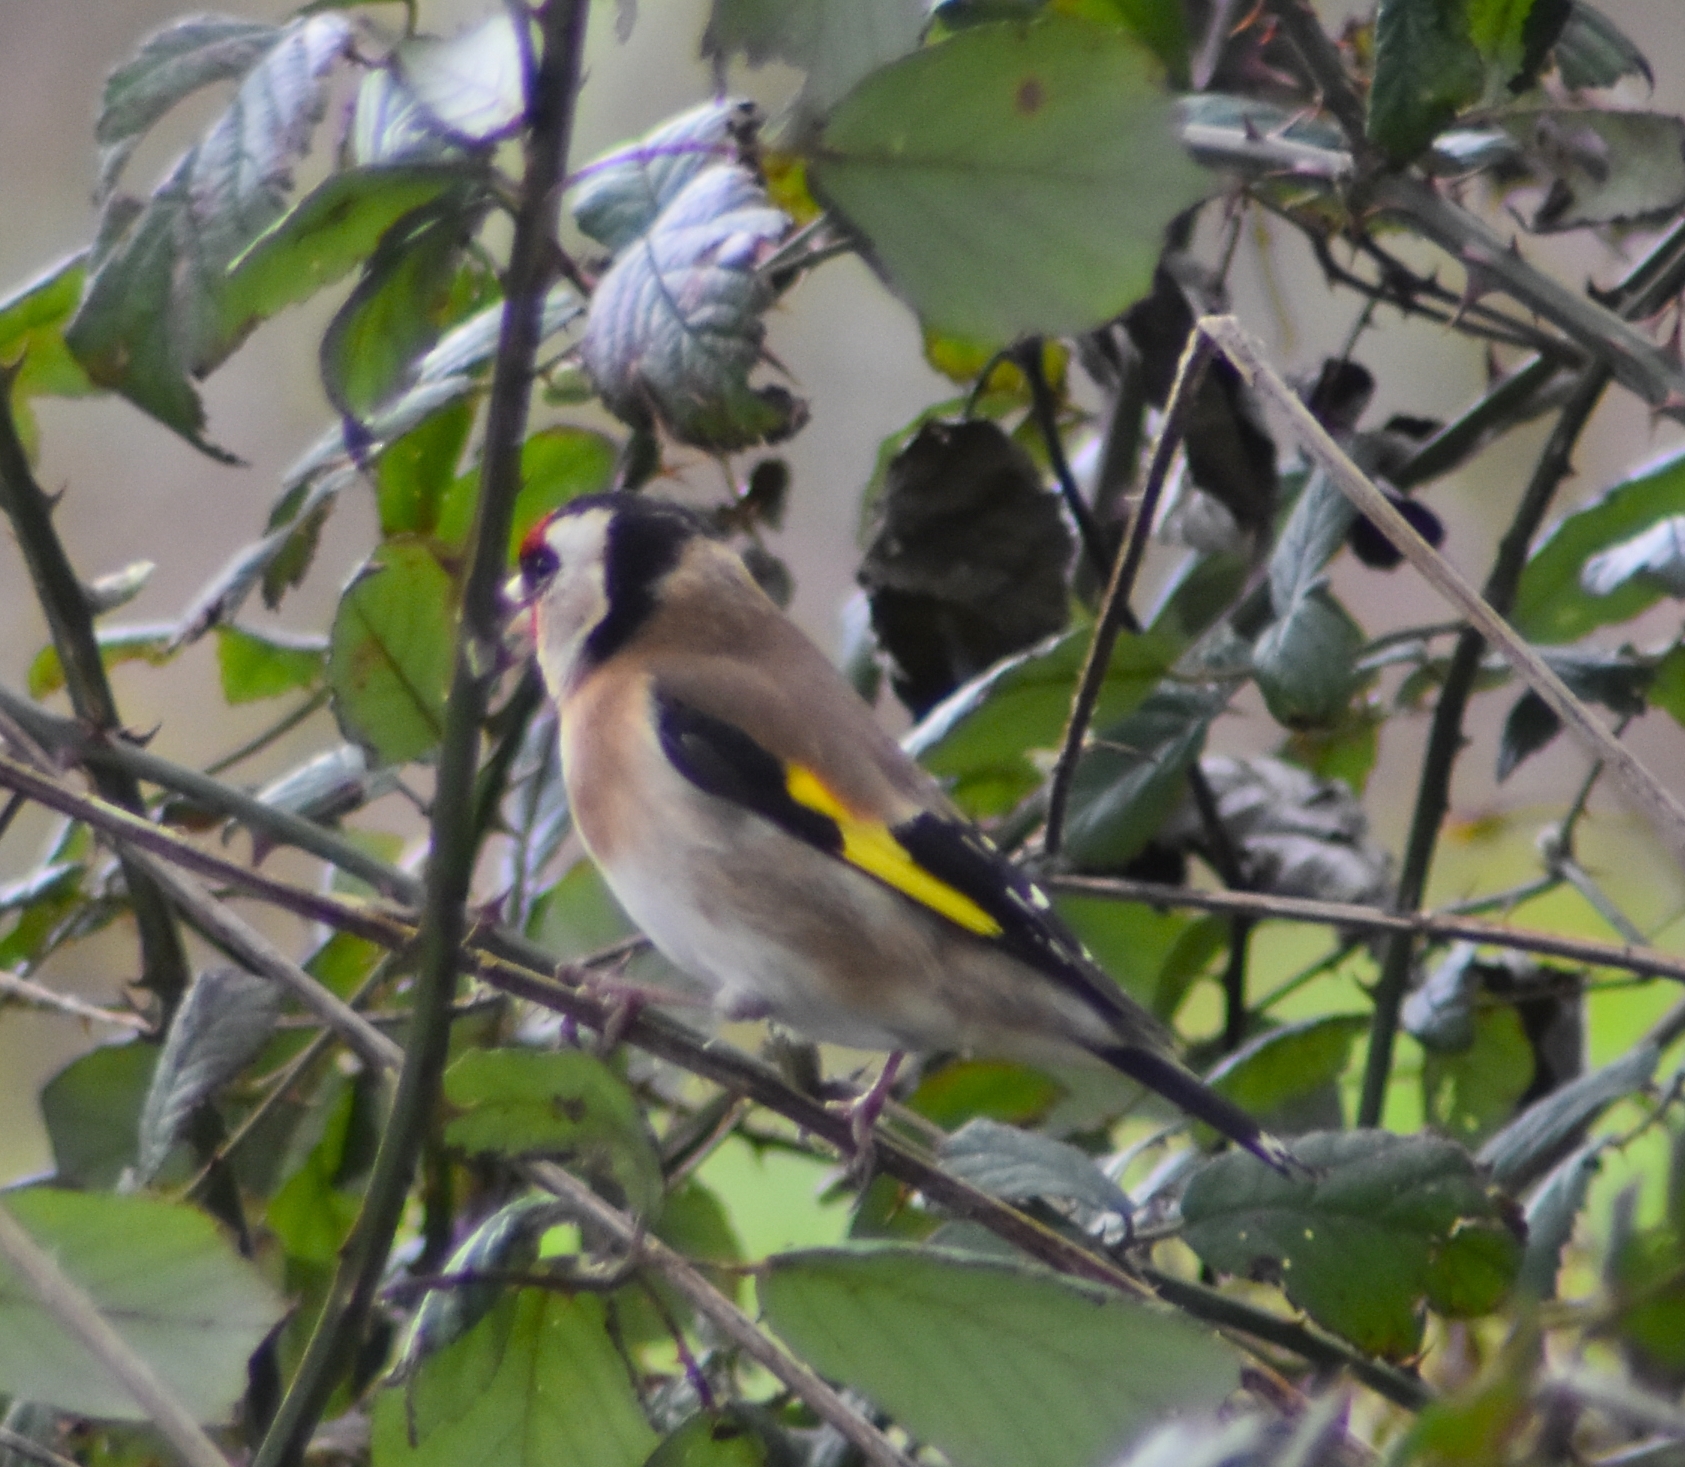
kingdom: Animalia
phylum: Chordata
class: Aves
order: Passeriformes
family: Fringillidae
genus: Carduelis
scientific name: Carduelis carduelis
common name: European goldfinch
